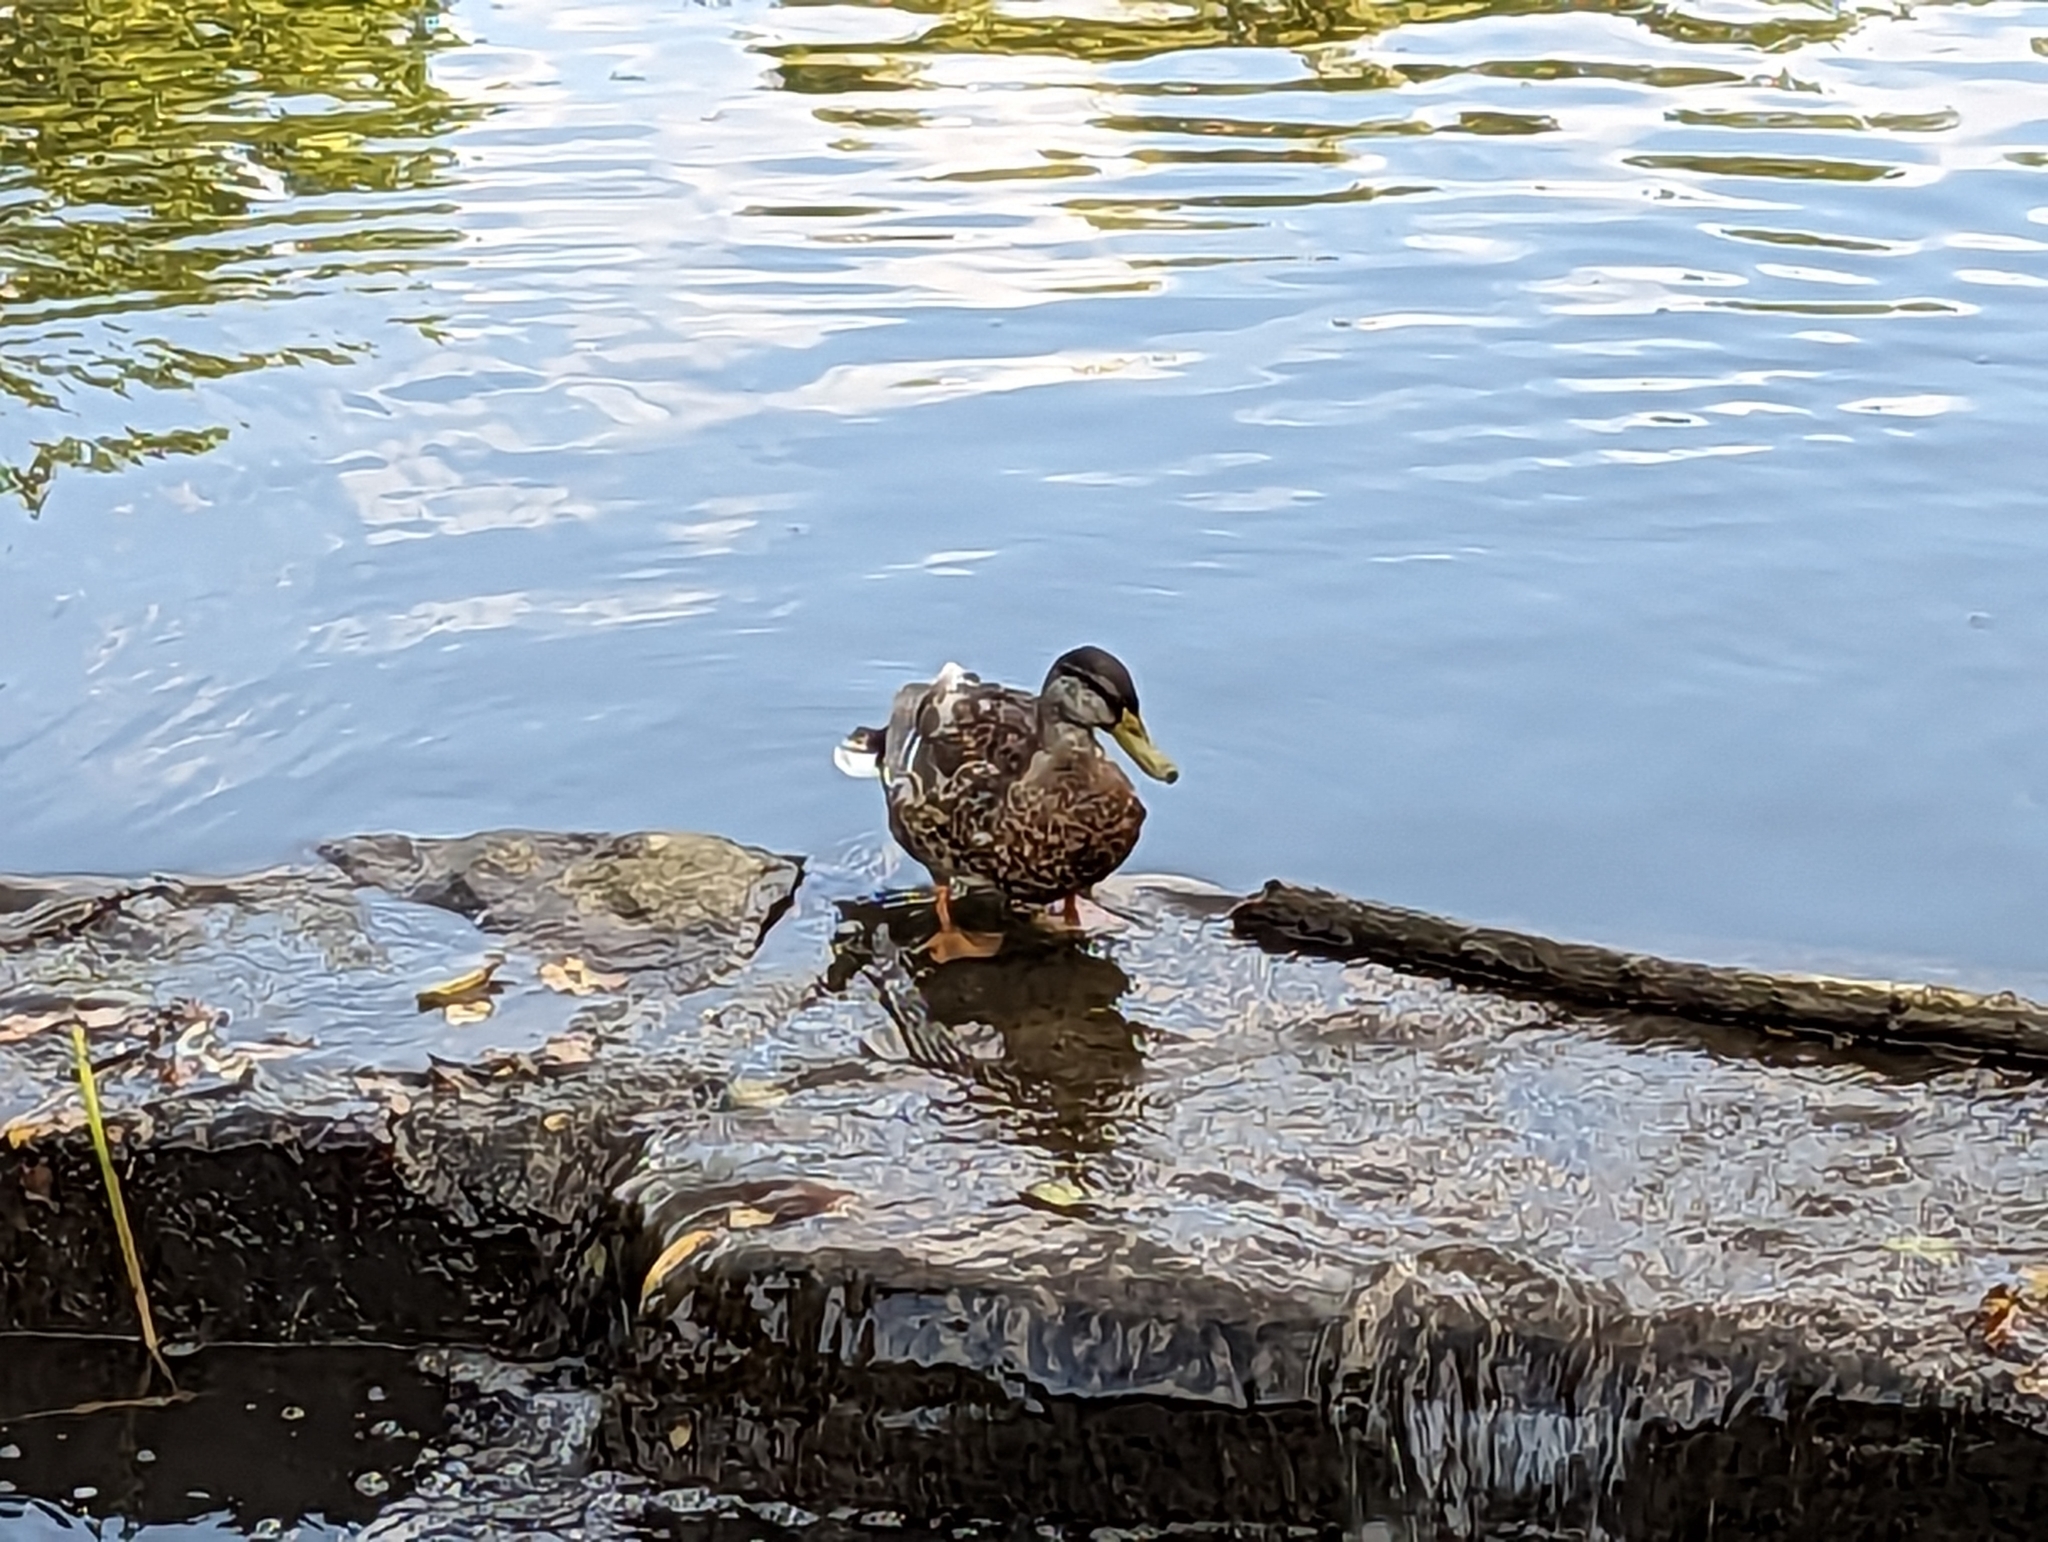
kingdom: Animalia
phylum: Chordata
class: Aves
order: Anseriformes
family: Anatidae
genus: Anas
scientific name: Anas platyrhynchos
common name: Mallard
